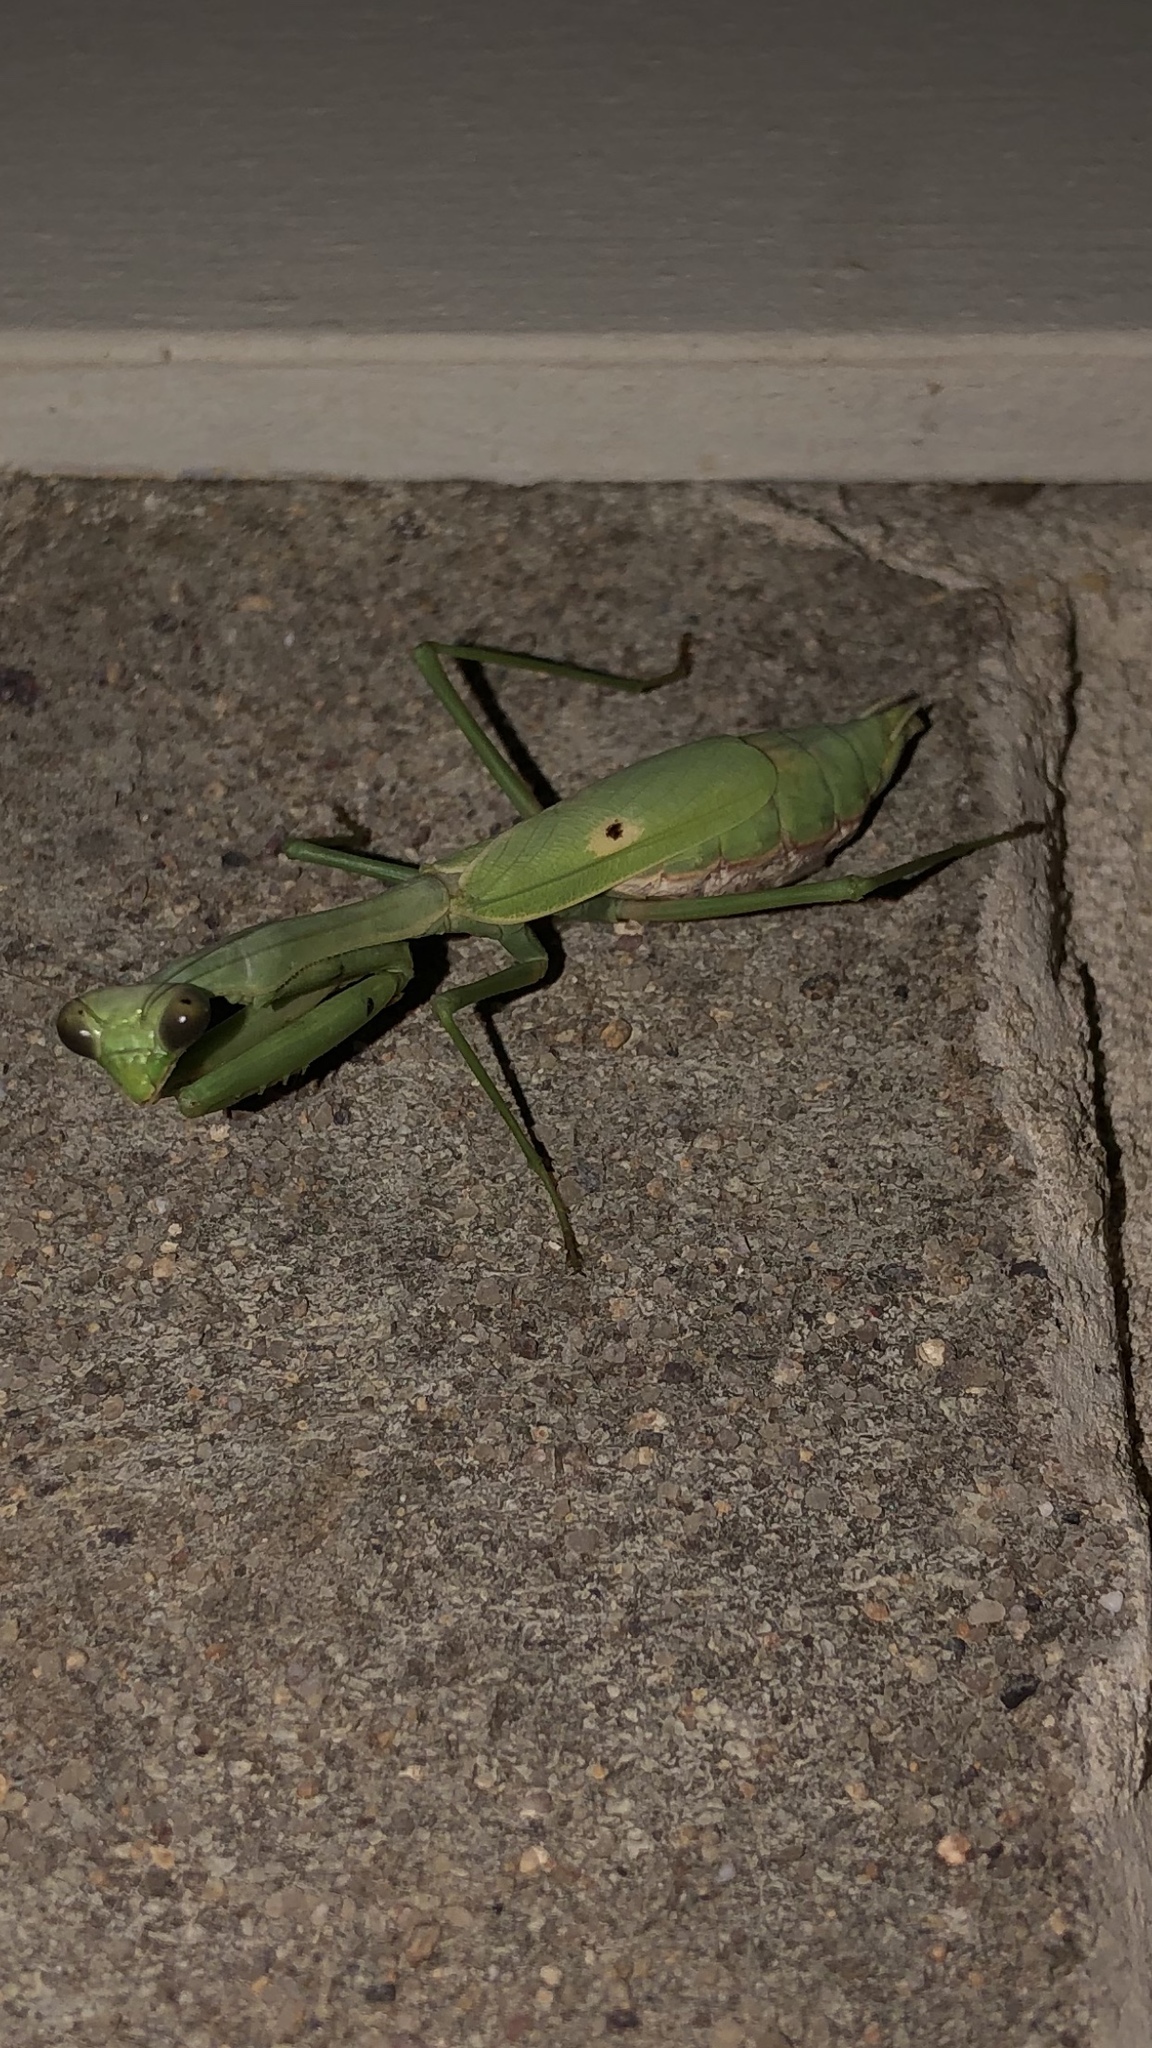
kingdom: Animalia
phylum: Arthropoda
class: Insecta
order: Mantodea
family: Mantidae
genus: Stagmomantis
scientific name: Stagmomantis carolina
